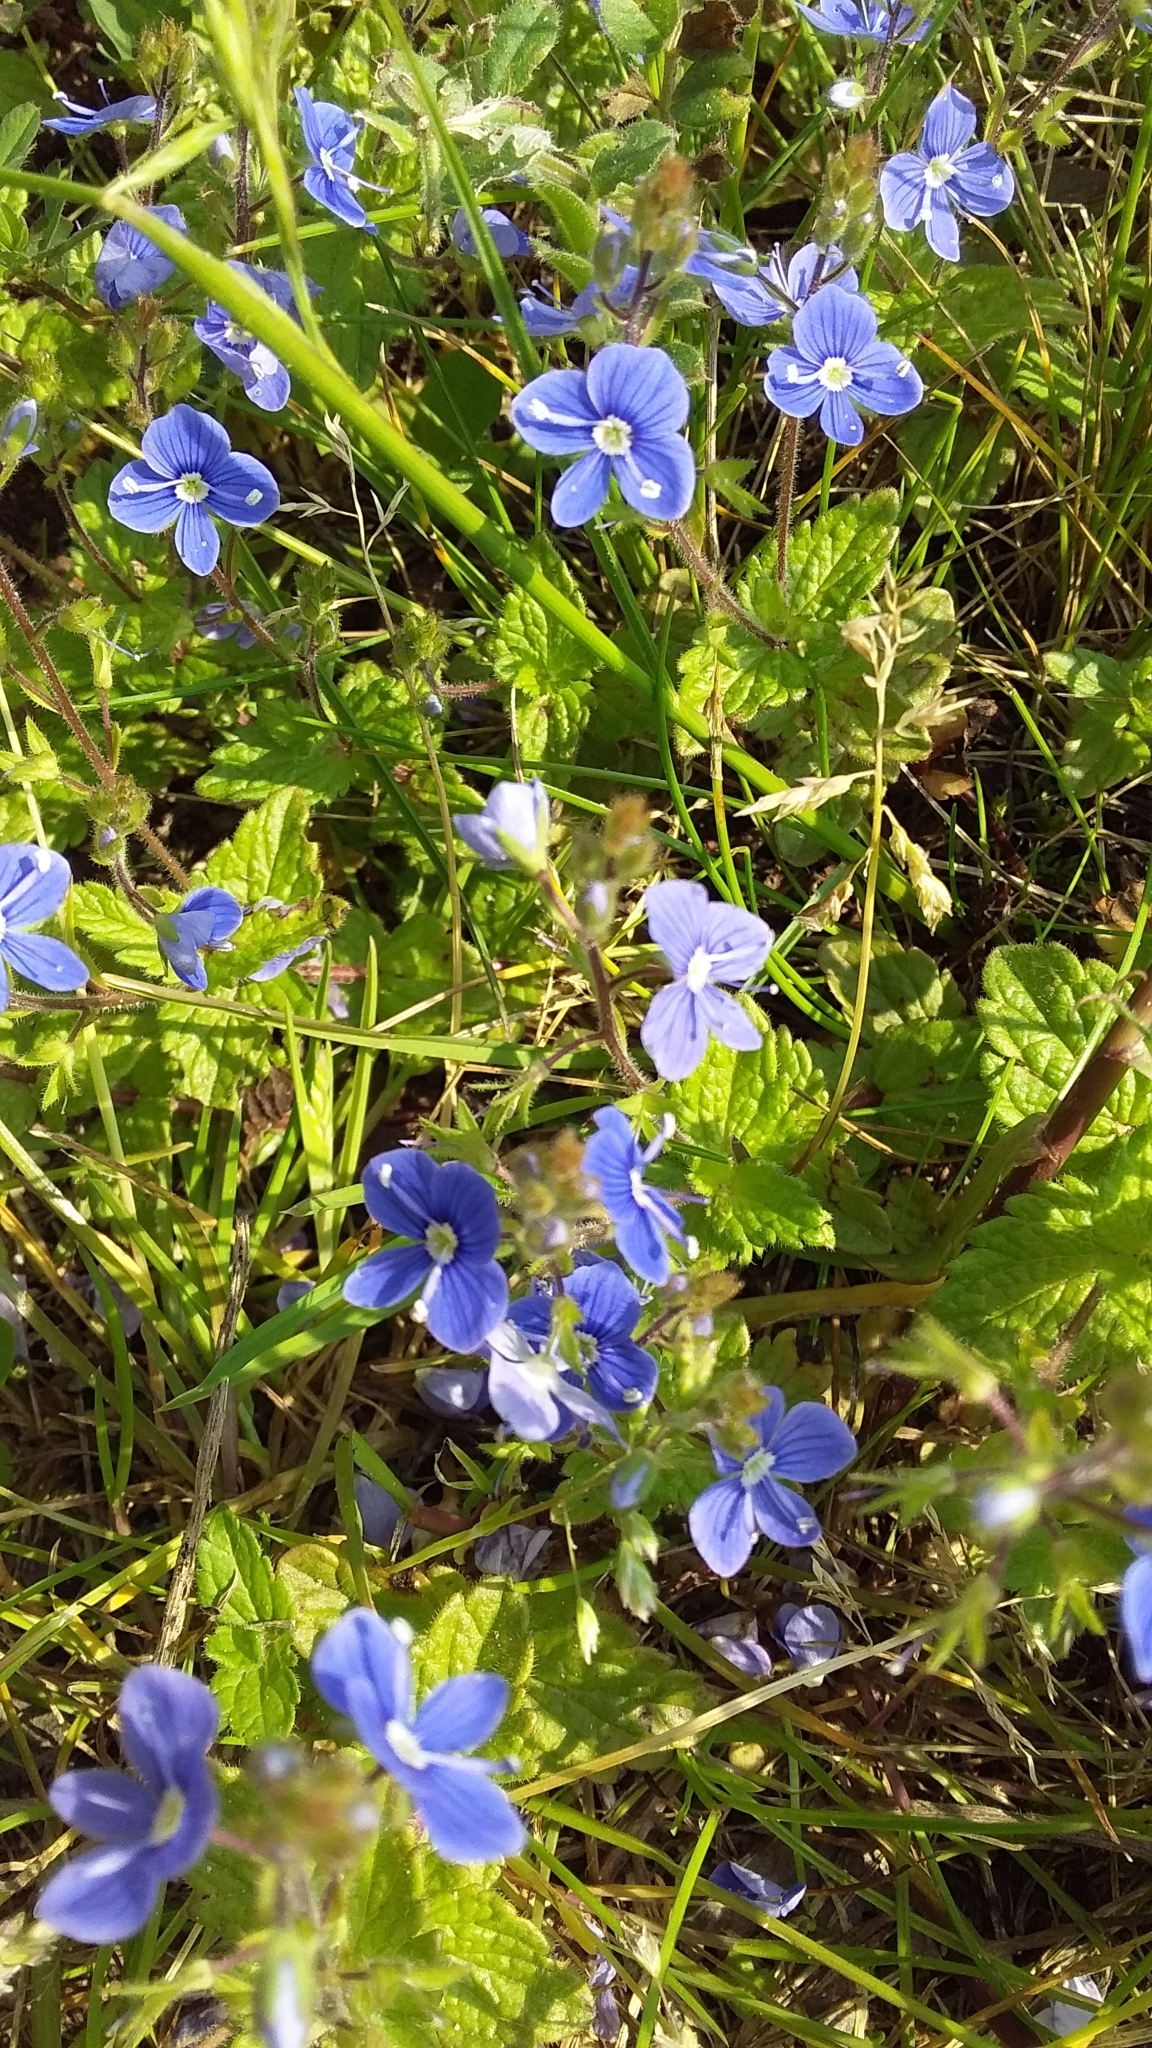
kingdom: Plantae
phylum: Tracheophyta
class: Magnoliopsida
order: Lamiales
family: Plantaginaceae
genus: Veronica
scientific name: Veronica chamaedrys
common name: Germander speedwell
